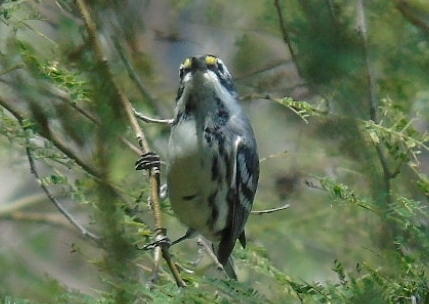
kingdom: Animalia
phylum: Chordata
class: Aves
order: Passeriformes
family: Parulidae
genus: Setophaga
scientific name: Setophaga nigrescens
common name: Black-throated gray warbler
